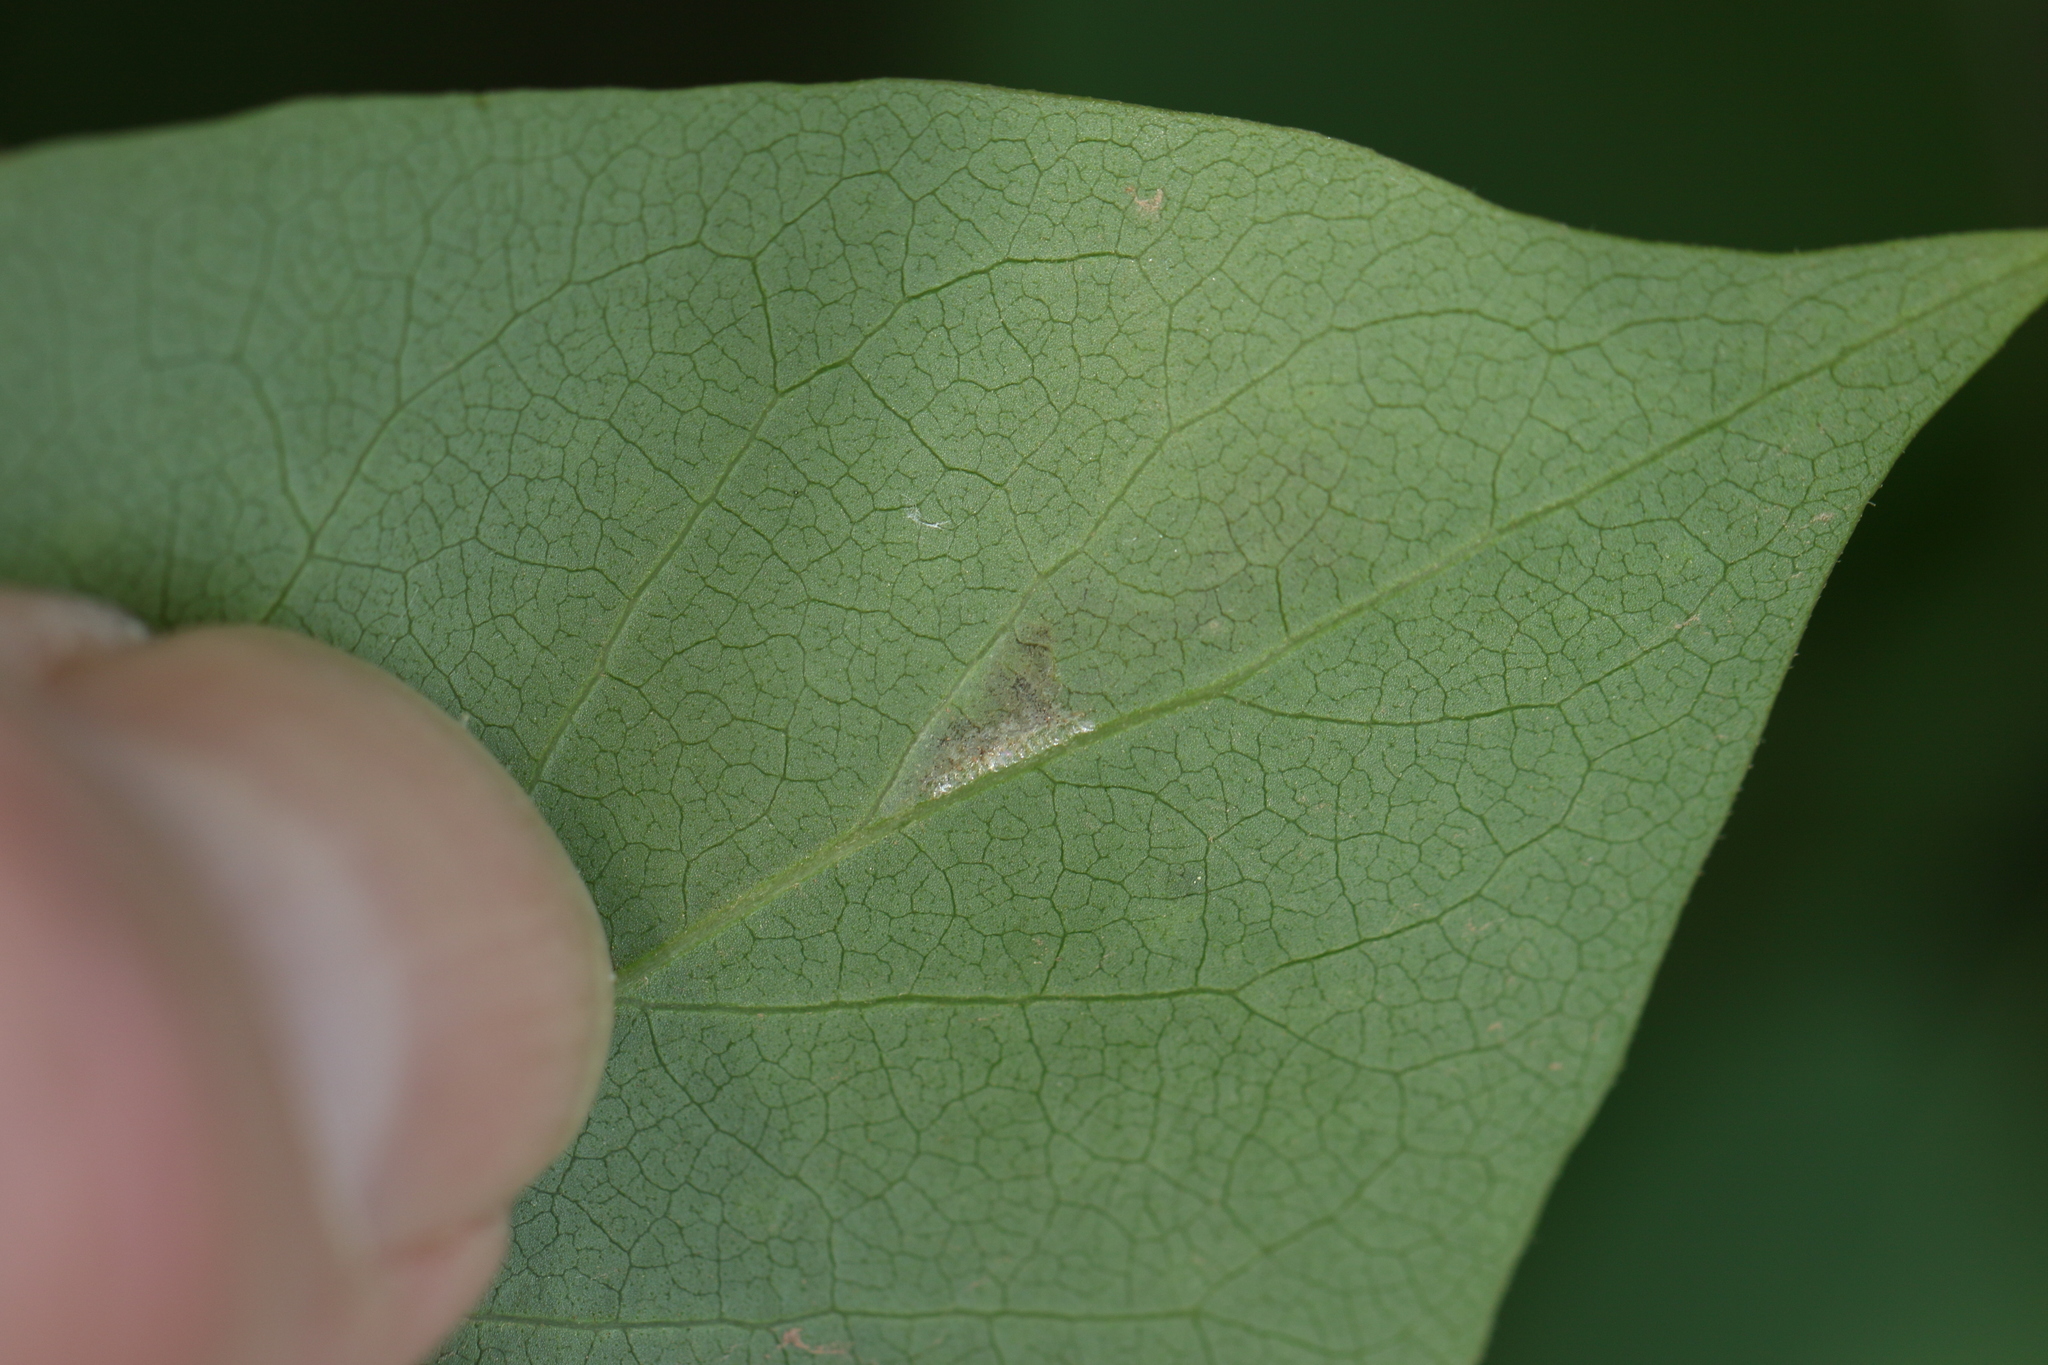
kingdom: Animalia
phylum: Arthropoda
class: Insecta
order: Lepidoptera
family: Gracillariidae
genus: Gracillaria
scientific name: Gracillaria syringella
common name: Common slender
